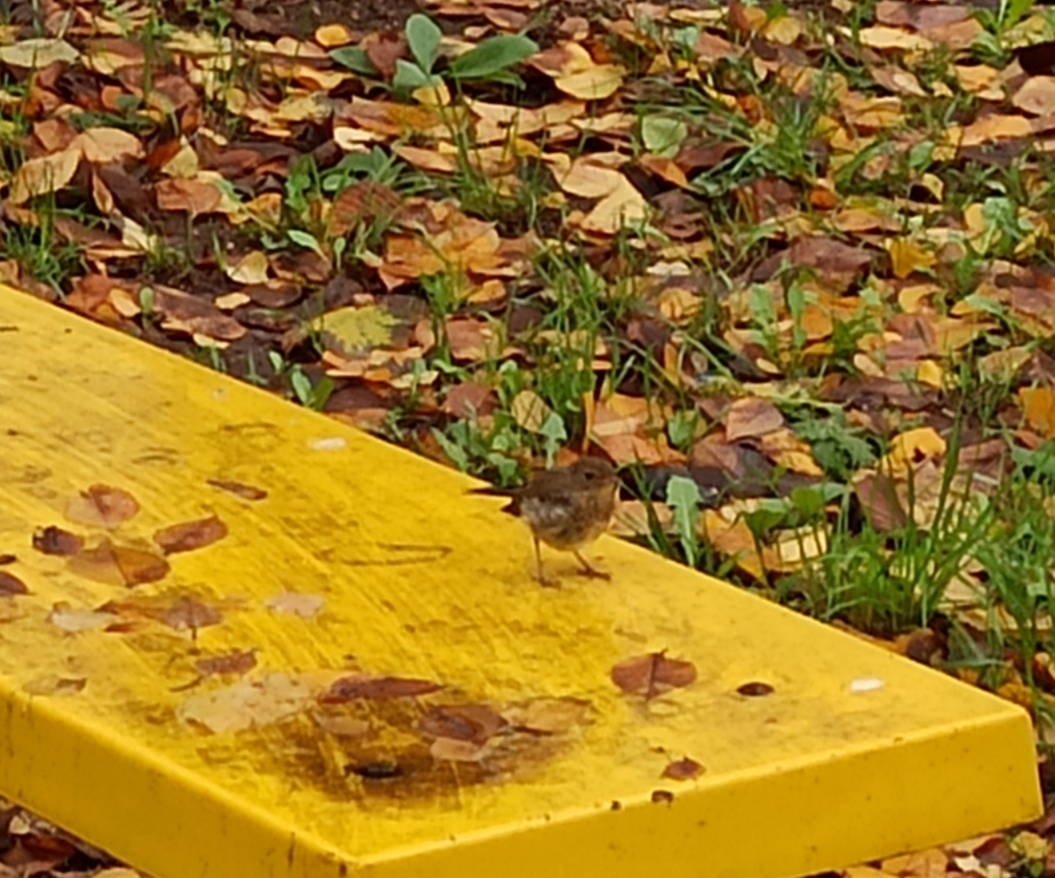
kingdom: Animalia
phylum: Chordata
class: Aves
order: Passeriformes
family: Muscicapidae
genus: Erithacus
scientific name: Erithacus rubecula
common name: European robin
